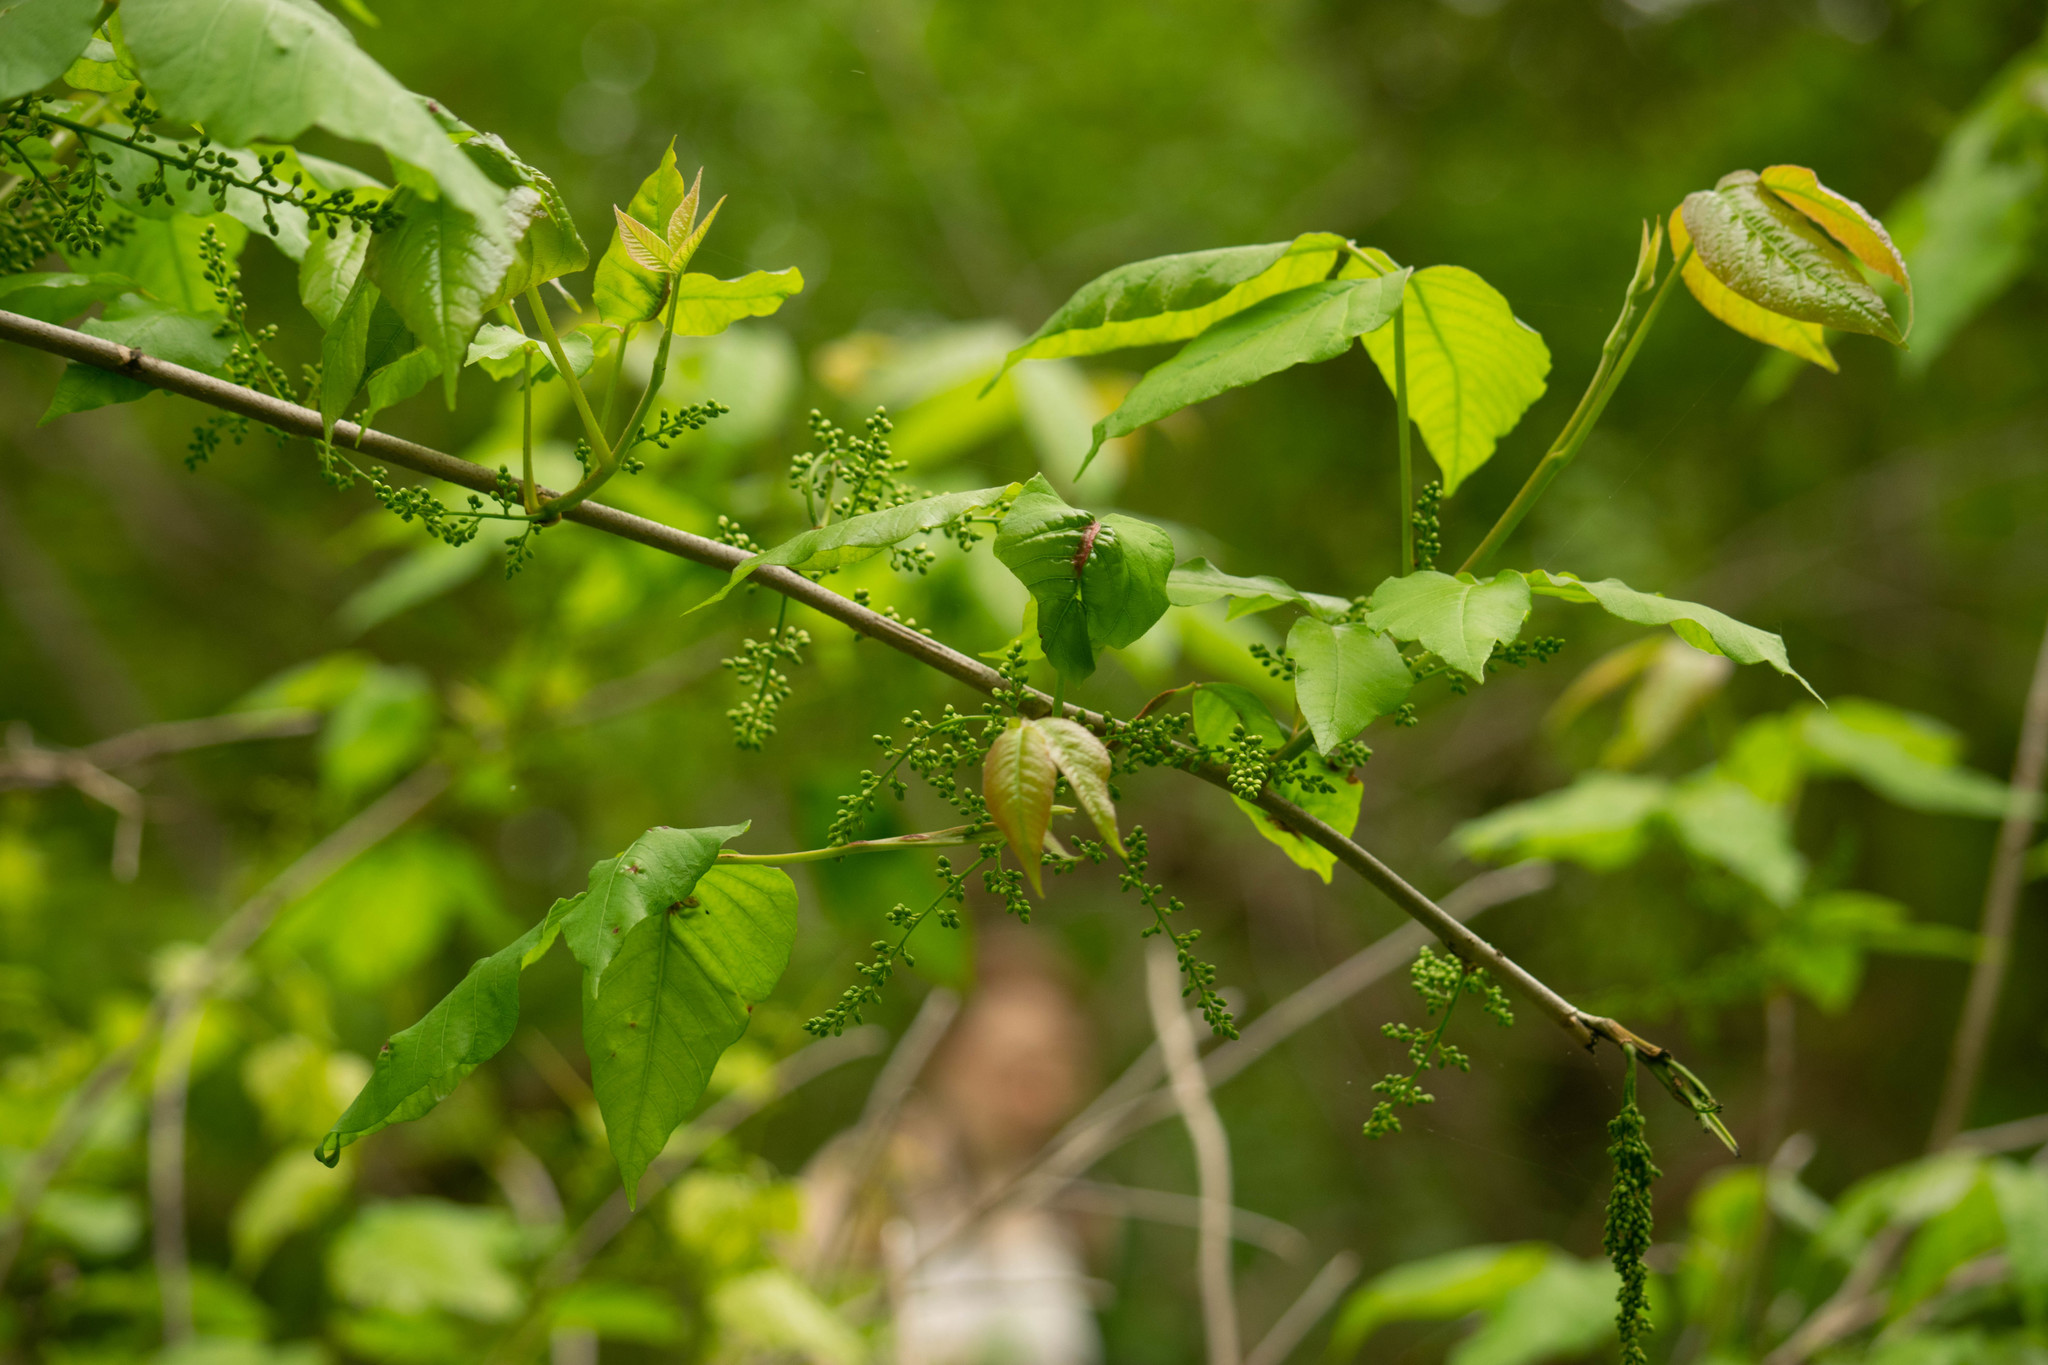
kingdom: Plantae
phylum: Tracheophyta
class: Magnoliopsida
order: Sapindales
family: Anacardiaceae
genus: Toxicodendron
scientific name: Toxicodendron radicans
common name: Poison ivy
